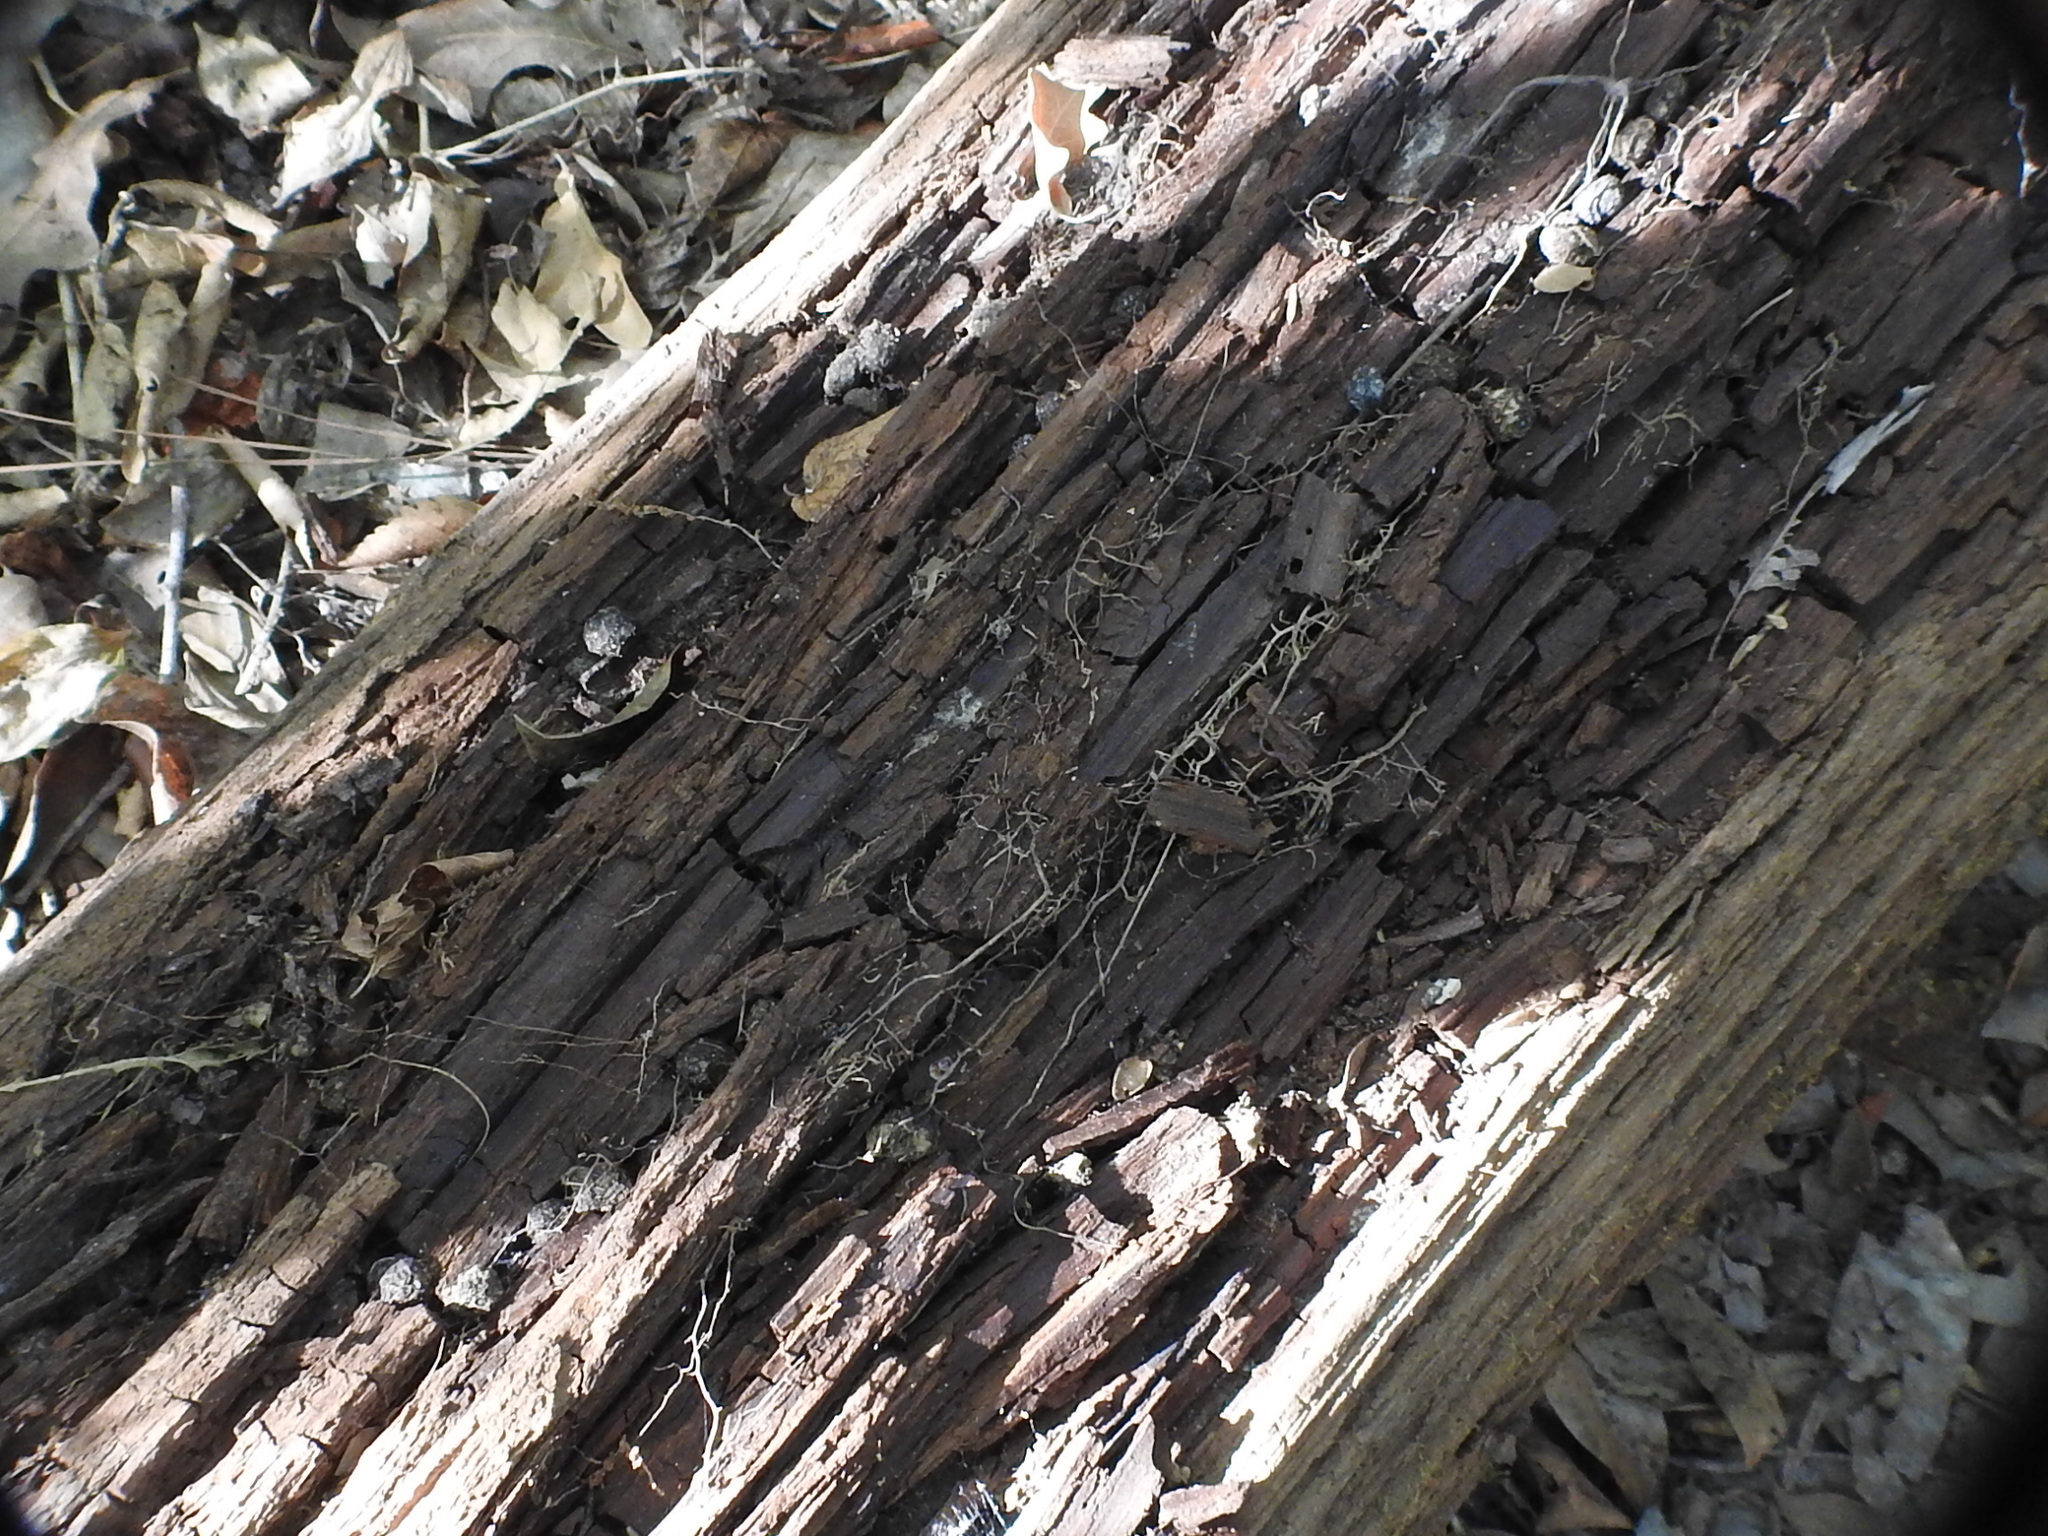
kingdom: Animalia
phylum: Chordata
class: Mammalia
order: Lagomorpha
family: Leporidae
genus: Sylvilagus
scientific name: Sylvilagus aquaticus
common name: Swamp rabbit
